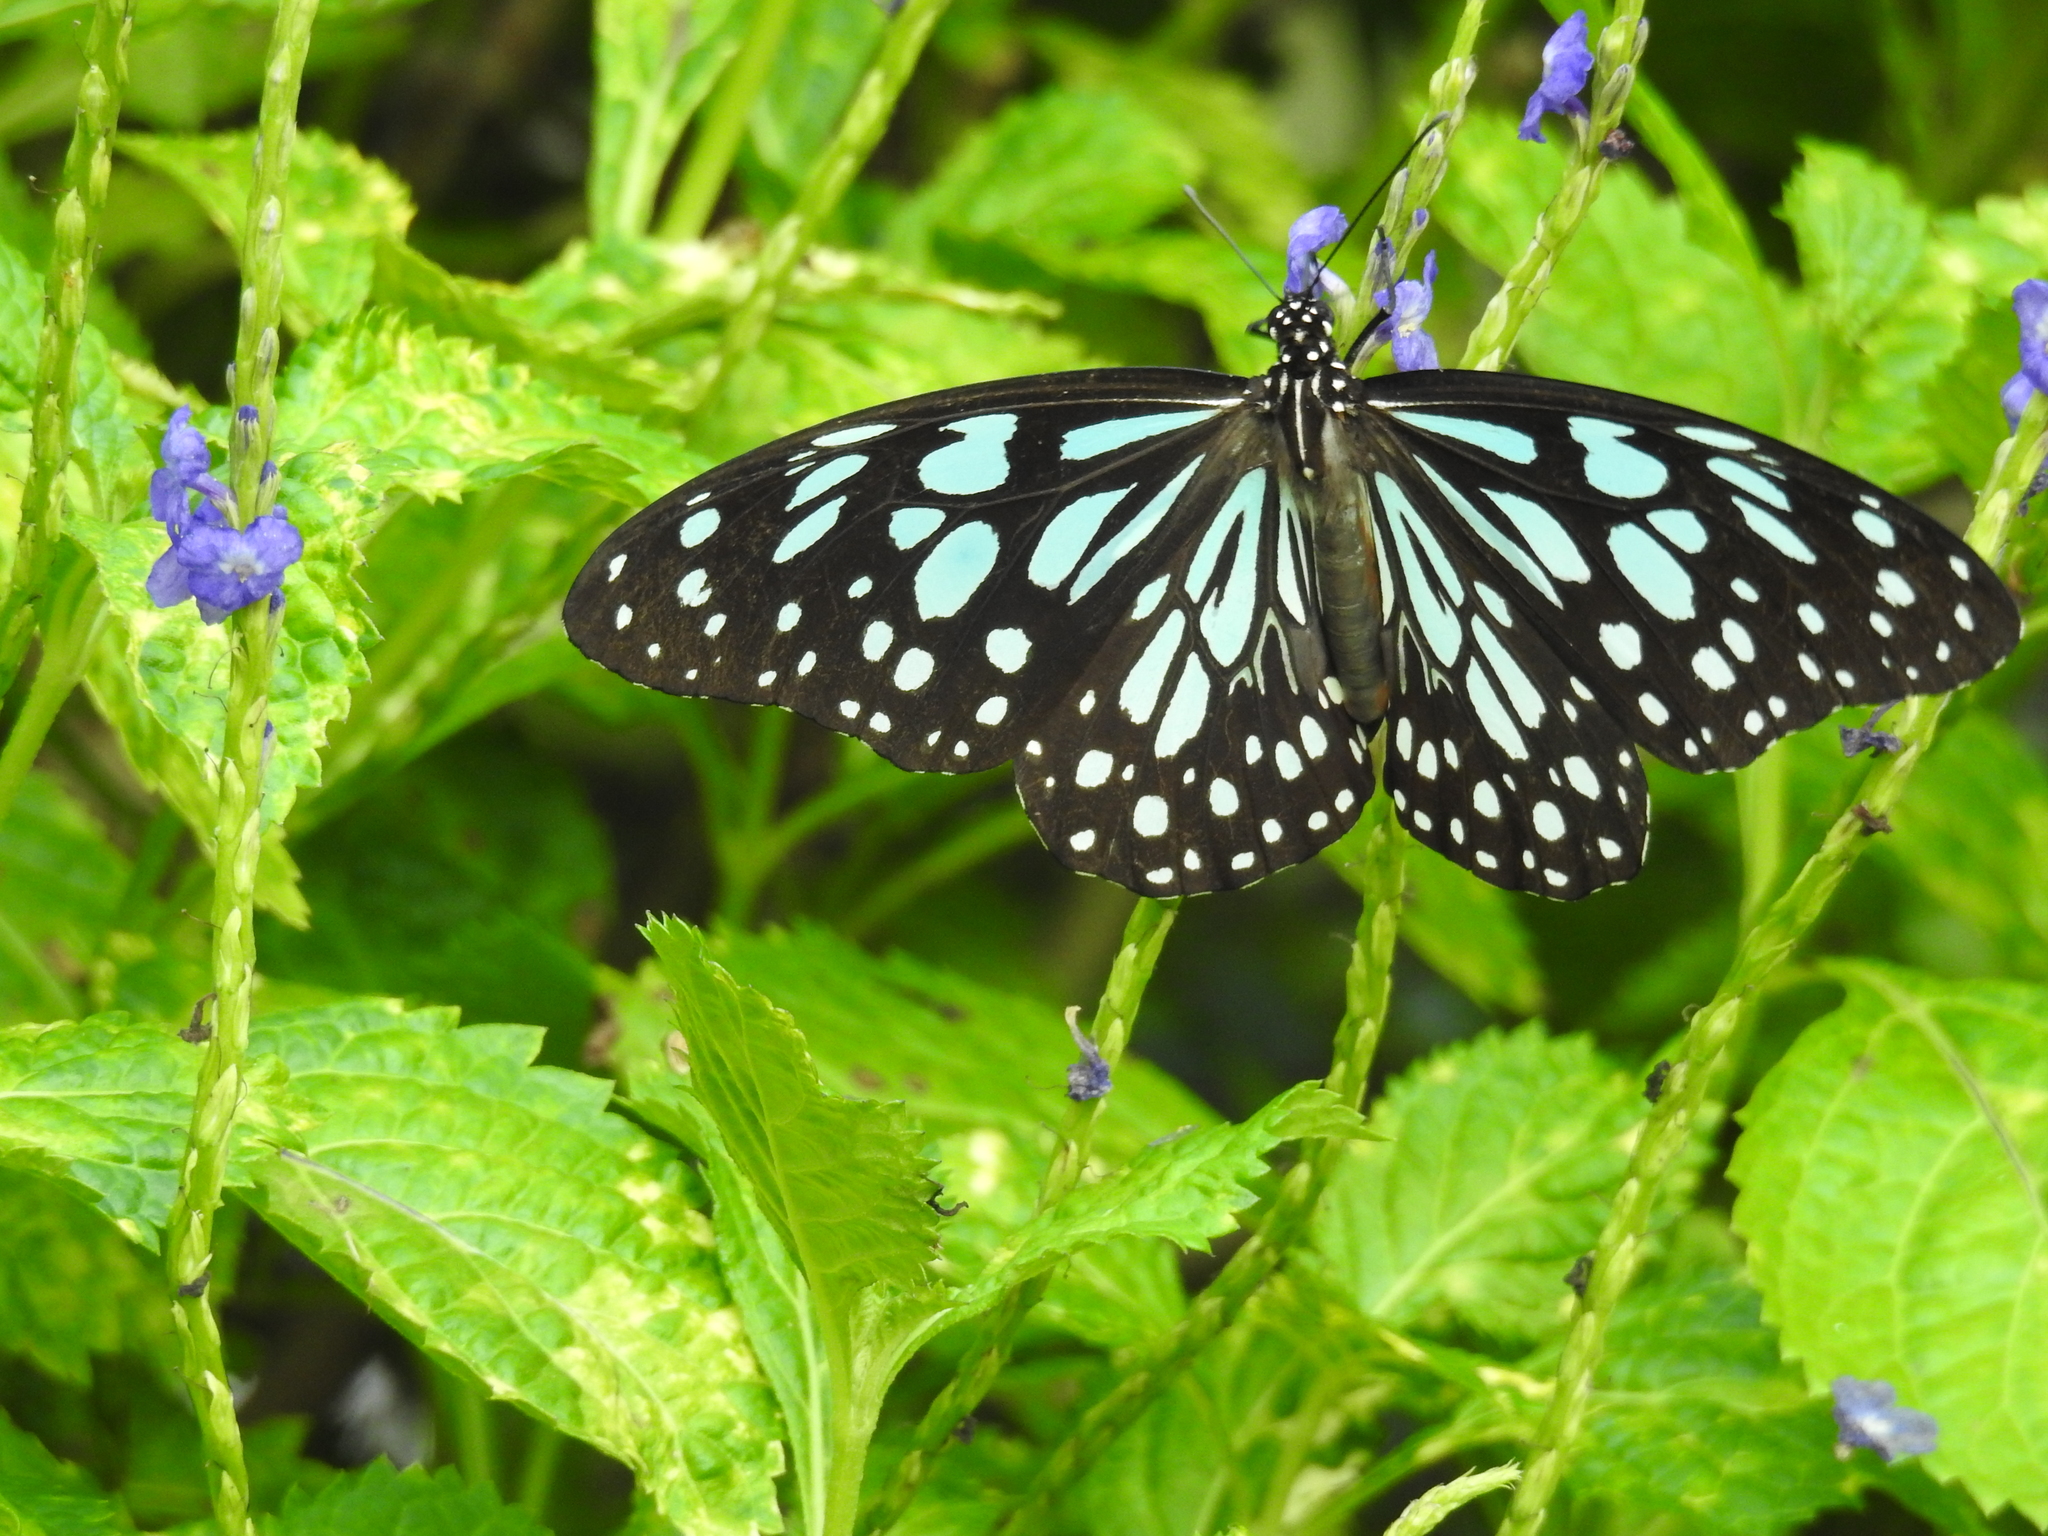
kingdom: Animalia
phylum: Arthropoda
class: Insecta
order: Lepidoptera
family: Nymphalidae
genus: Tirumala
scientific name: Tirumala limniace
